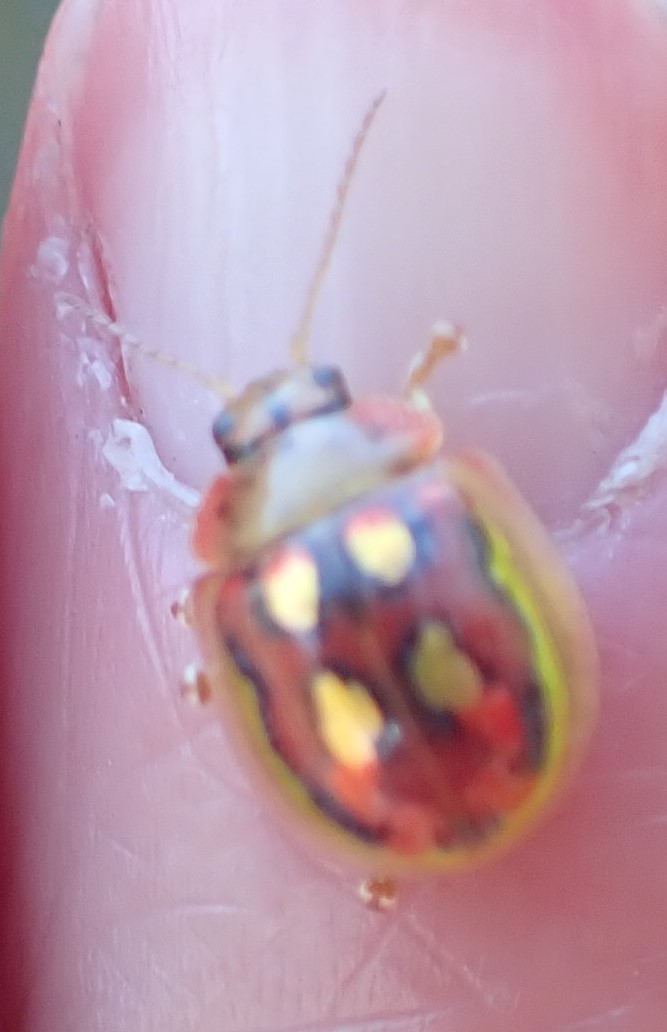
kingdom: Animalia
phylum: Arthropoda
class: Insecta
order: Coleoptera
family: Chrysomelidae
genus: Paropsisterna
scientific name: Paropsisterna
